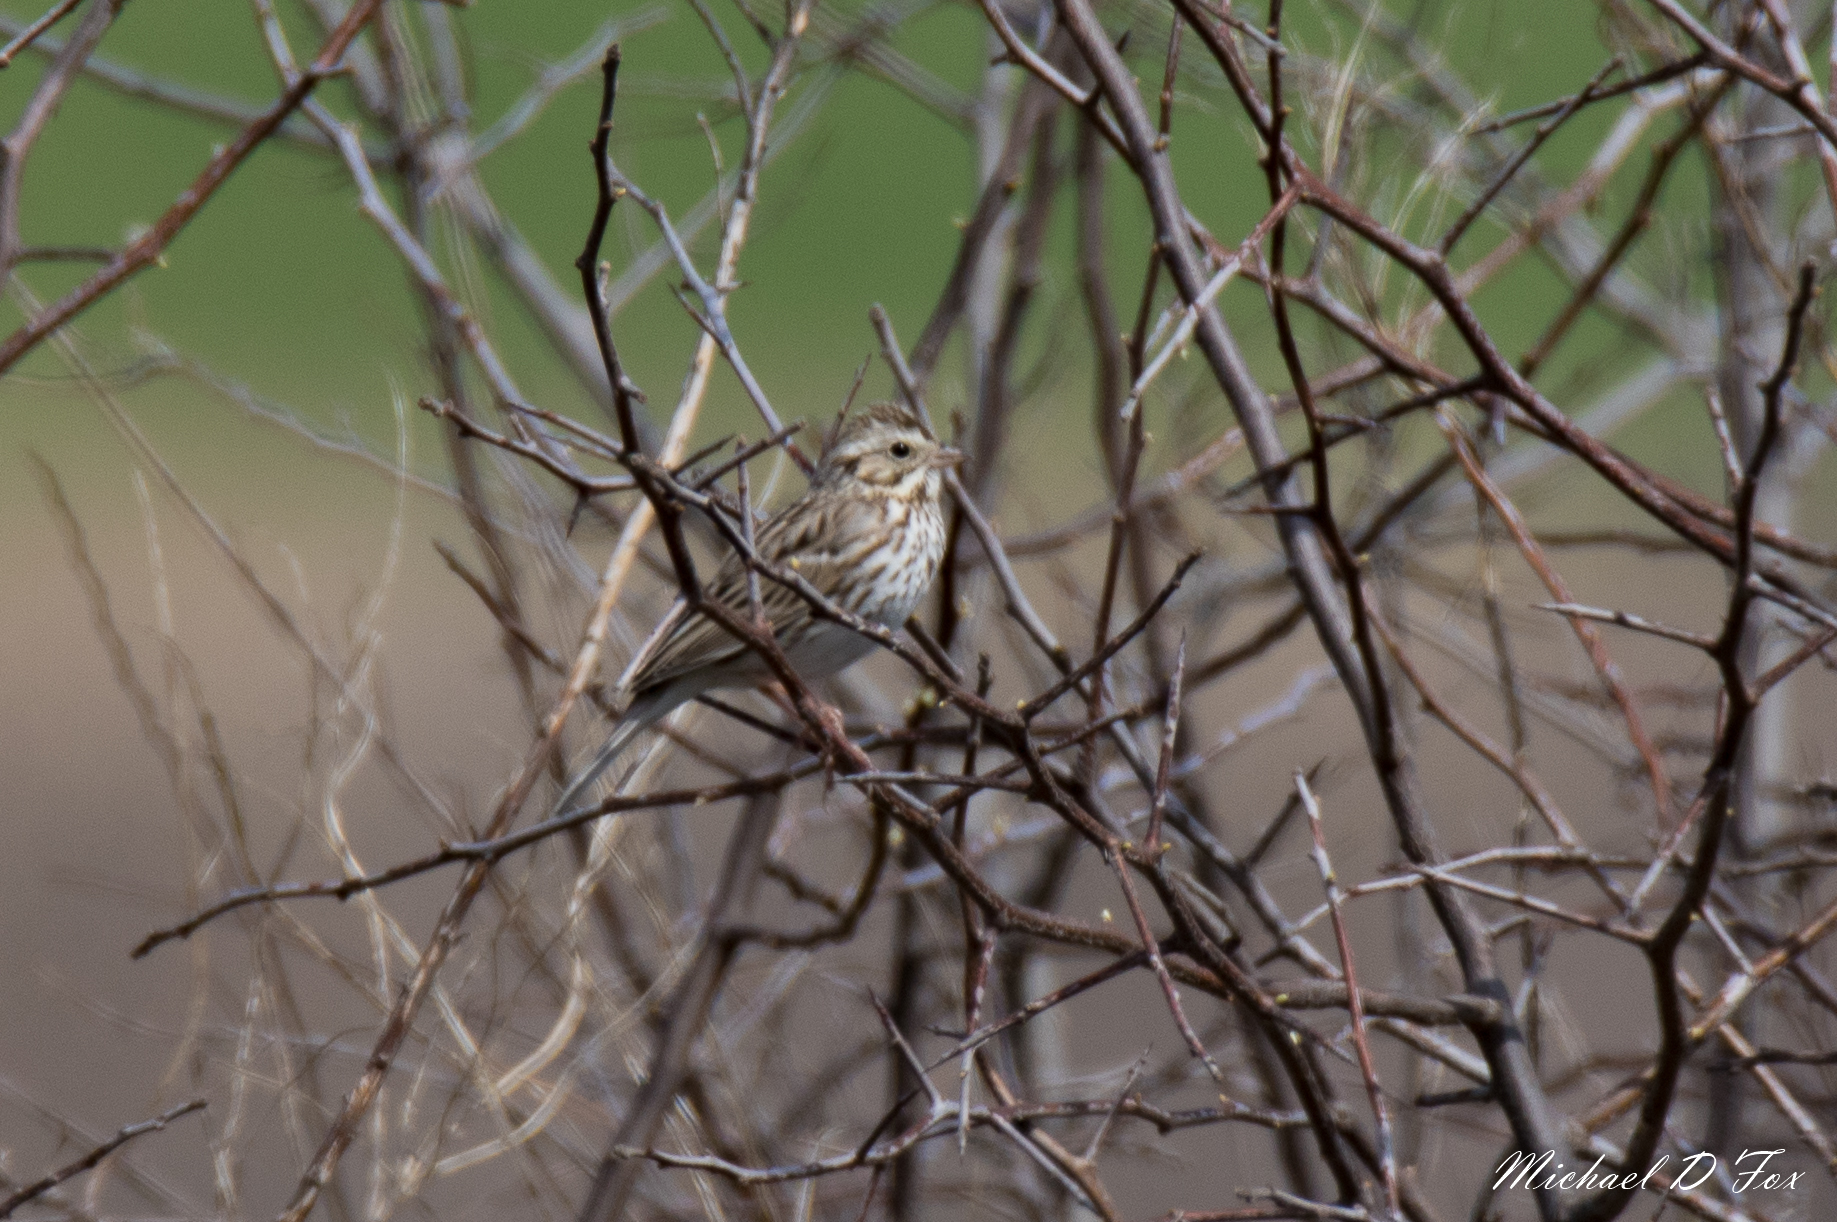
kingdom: Animalia
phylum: Chordata
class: Aves
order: Passeriformes
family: Passerellidae
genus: Passerculus
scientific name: Passerculus sandwichensis
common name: Savannah sparrow
